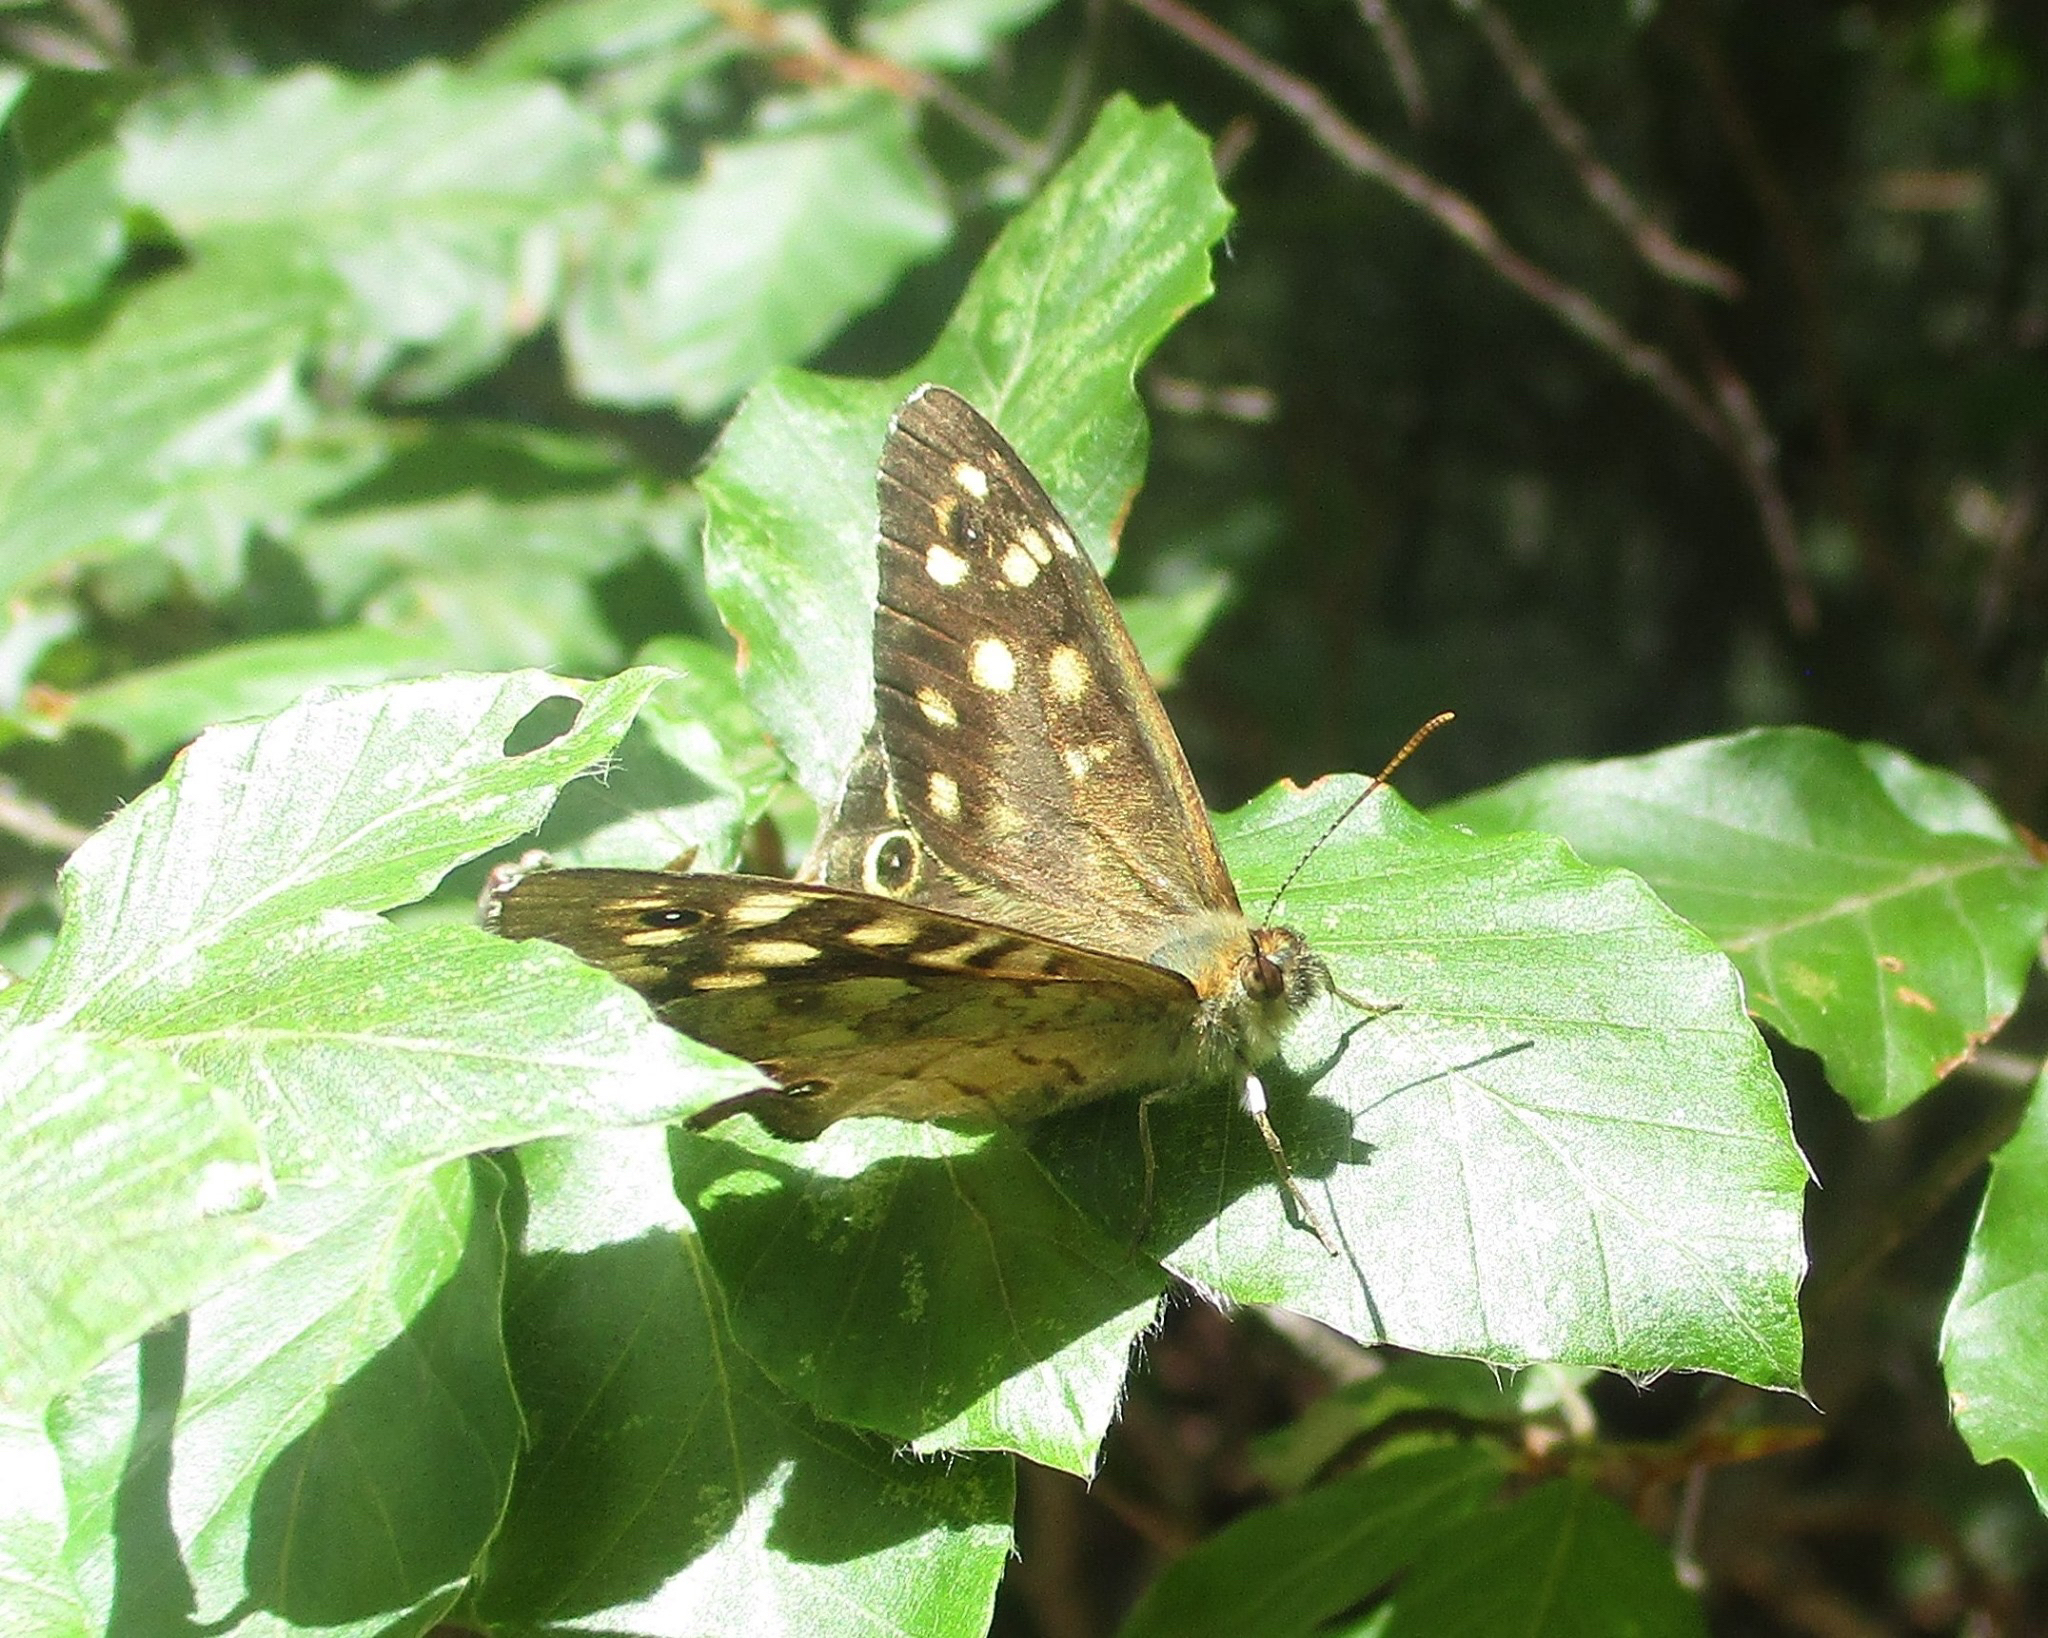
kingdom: Animalia
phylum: Arthropoda
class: Insecta
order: Lepidoptera
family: Nymphalidae
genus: Pararge
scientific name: Pararge aegeria
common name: Speckled wood
